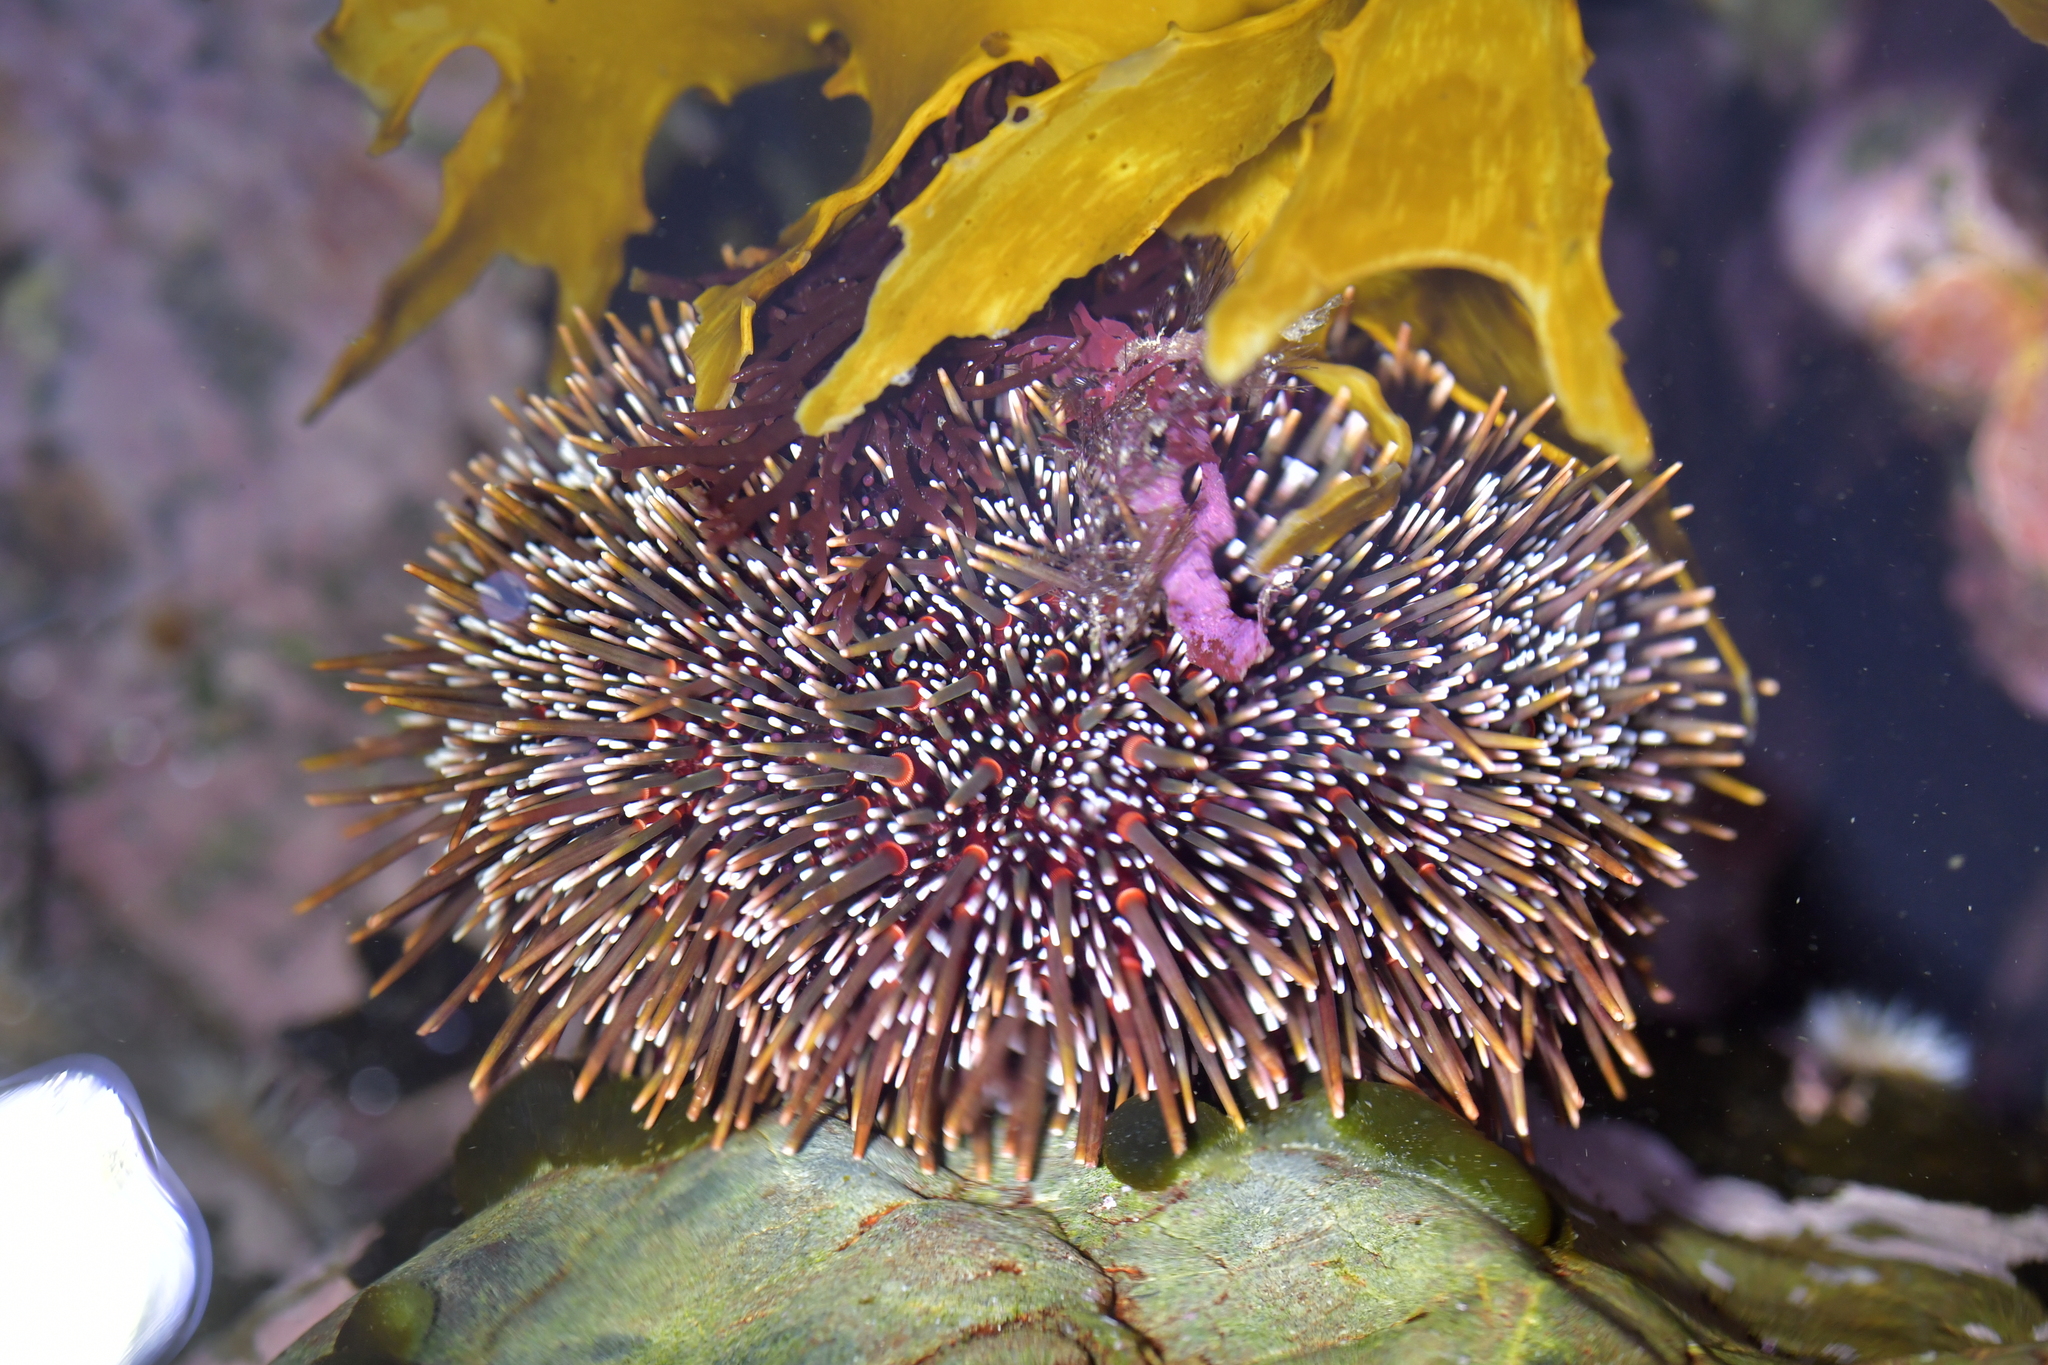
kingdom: Animalia
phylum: Echinodermata
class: Echinoidea
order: Camarodonta
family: Echinometridae
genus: Evechinus
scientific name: Evechinus chloroticus
